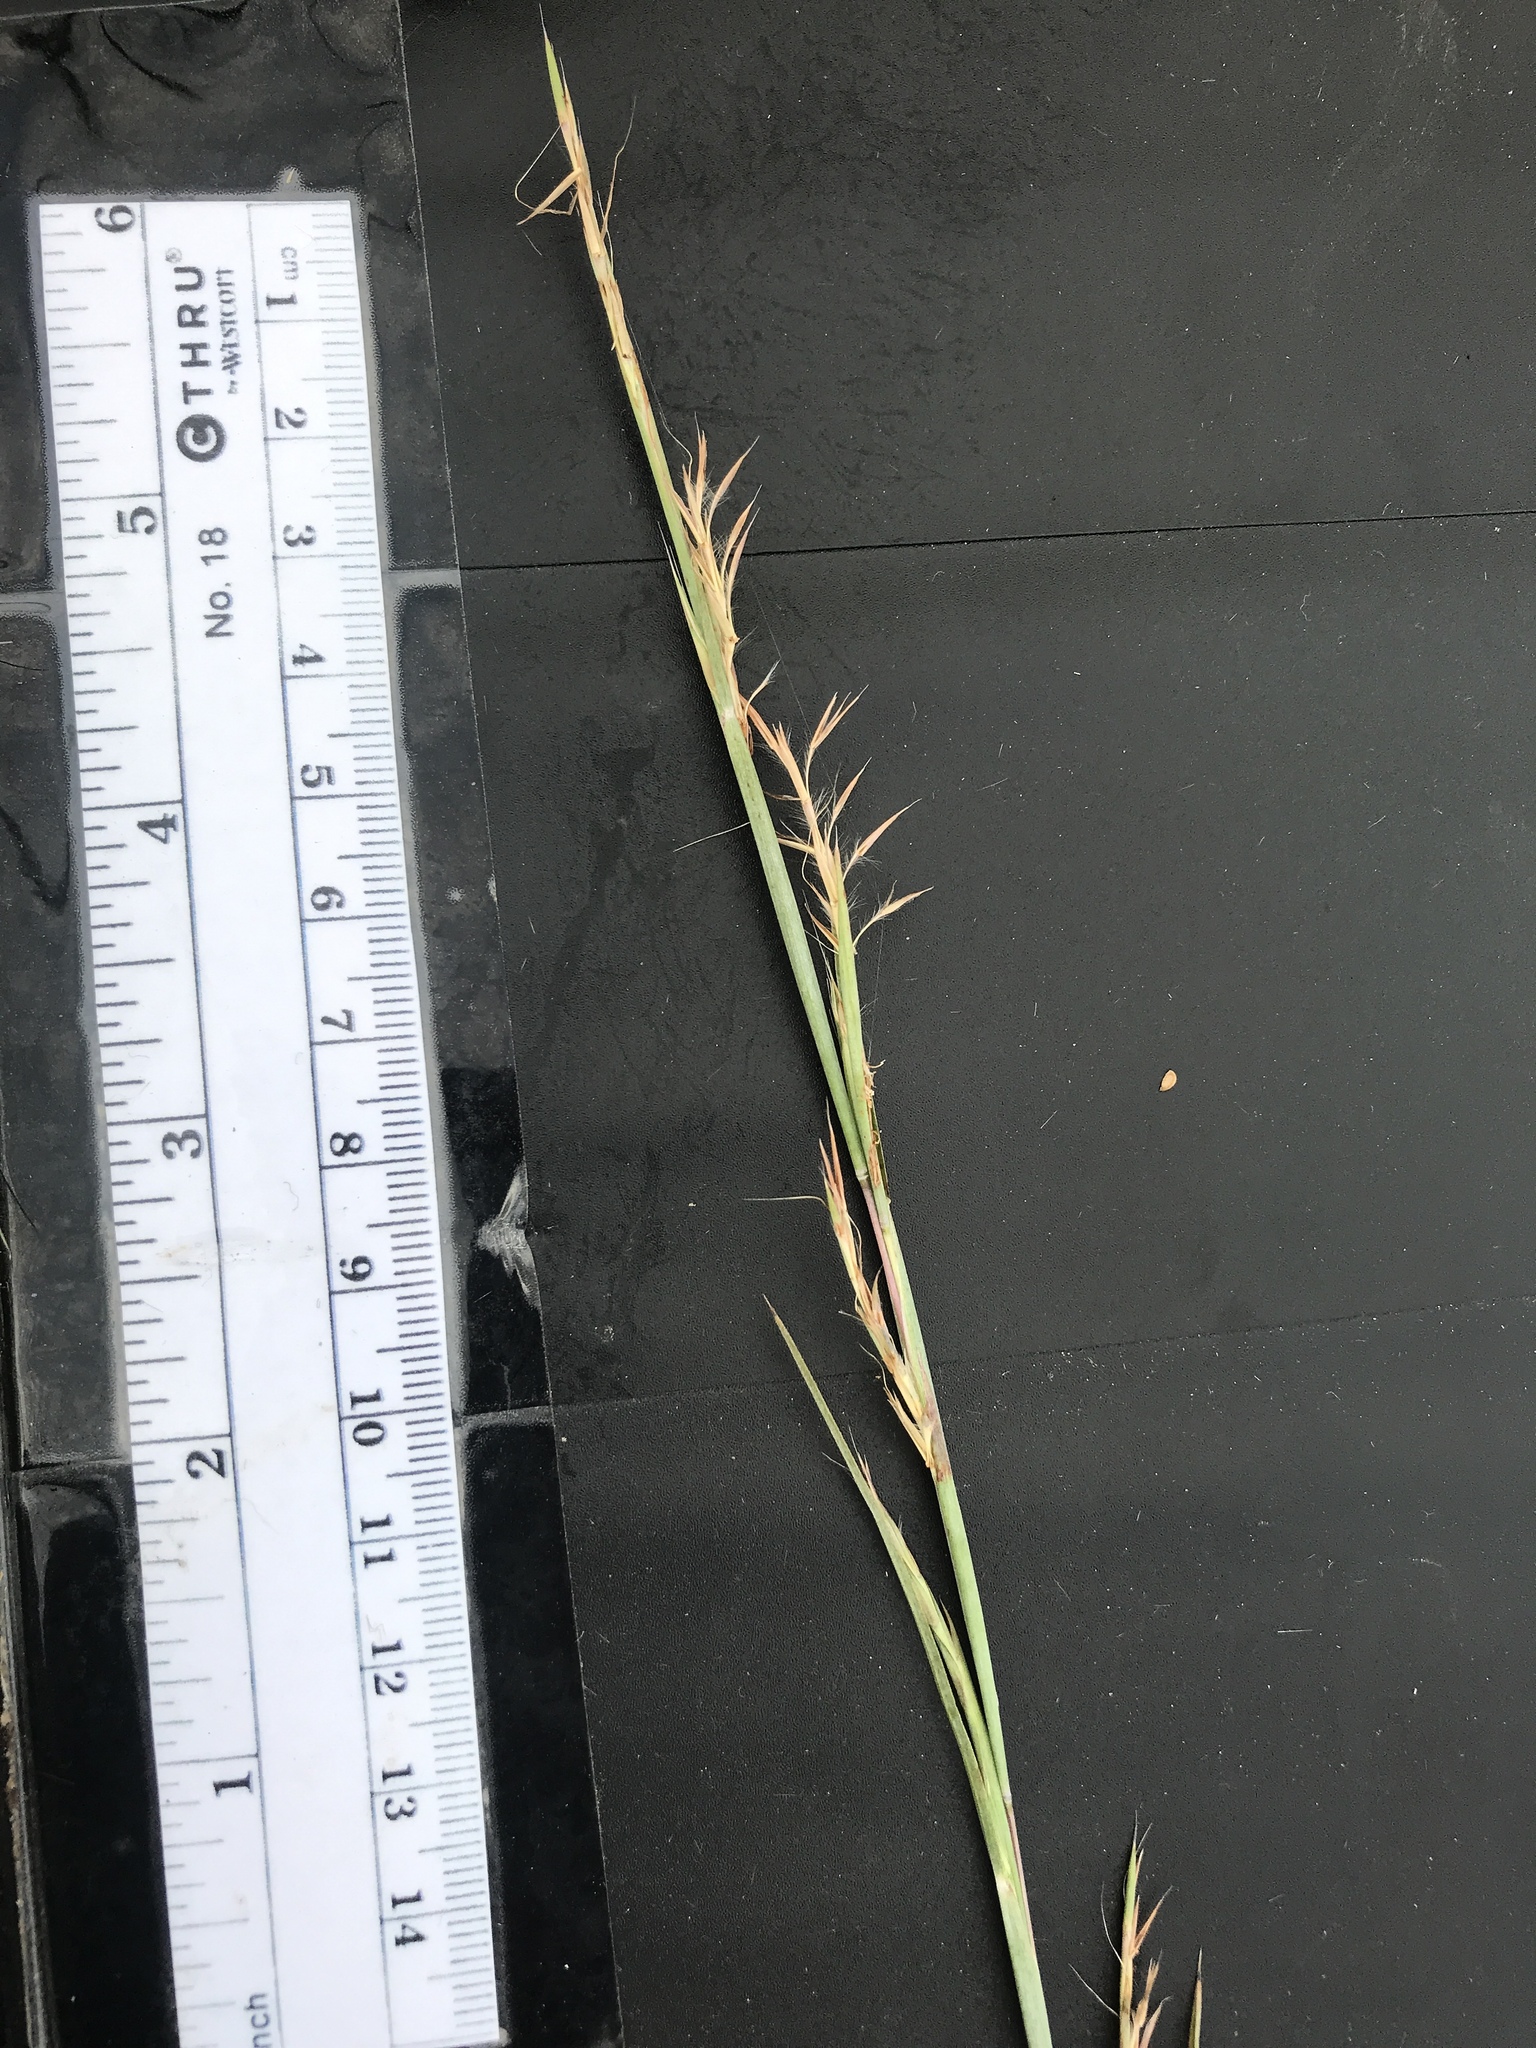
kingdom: Plantae
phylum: Tracheophyta
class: Liliopsida
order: Poales
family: Poaceae
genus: Schizachyrium
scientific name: Schizachyrium scoparium
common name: Little bluestem
